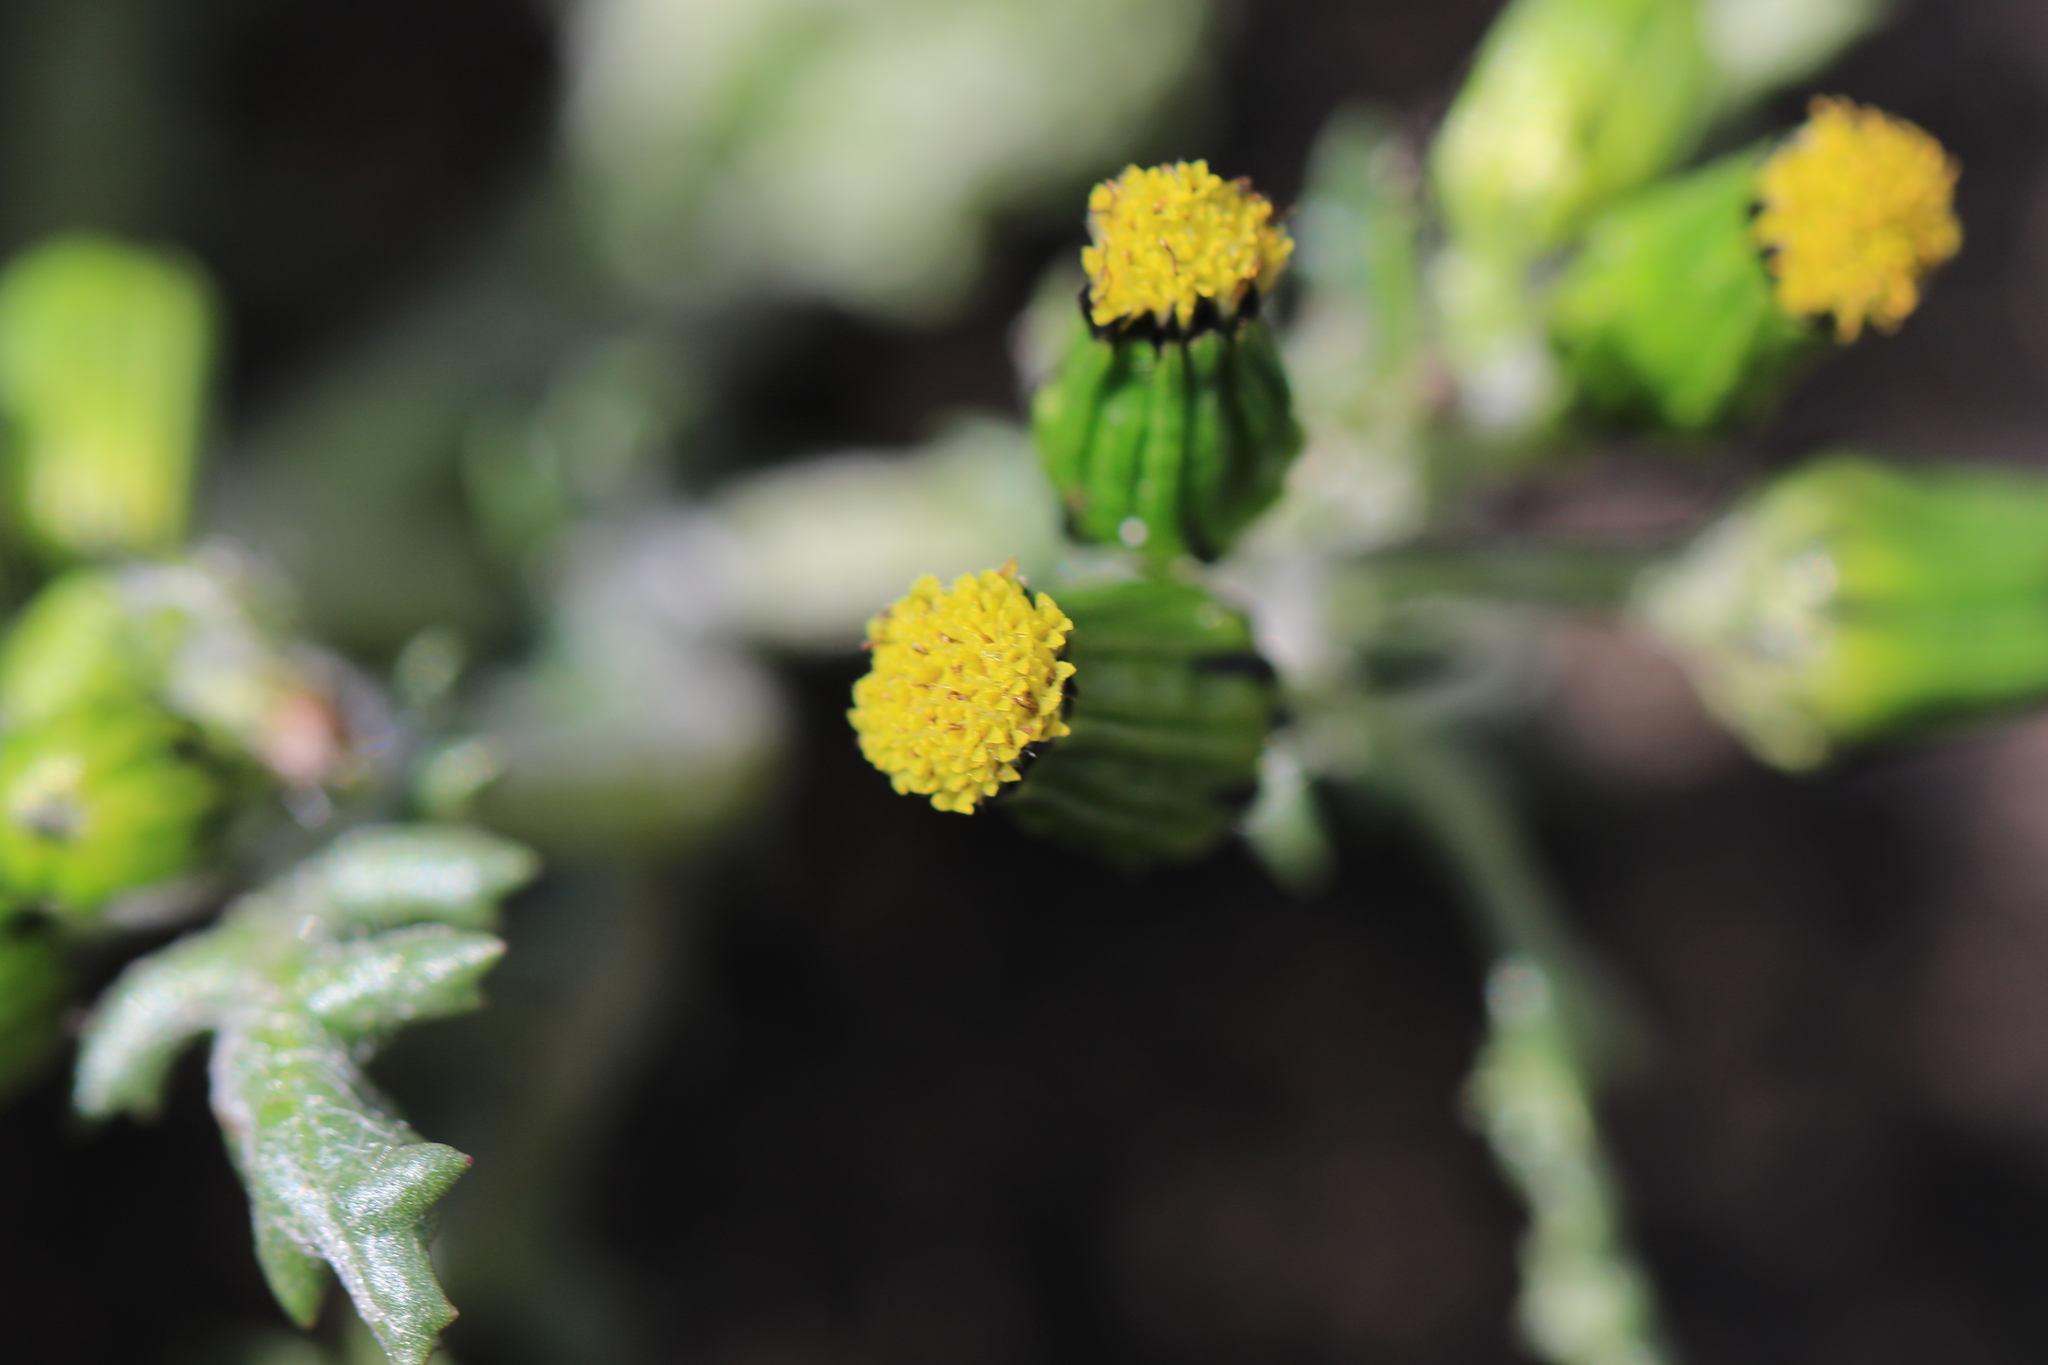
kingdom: Plantae
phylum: Tracheophyta
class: Magnoliopsida
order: Asterales
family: Asteraceae
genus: Senecio
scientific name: Senecio vulgaris
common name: Old-man-in-the-spring
